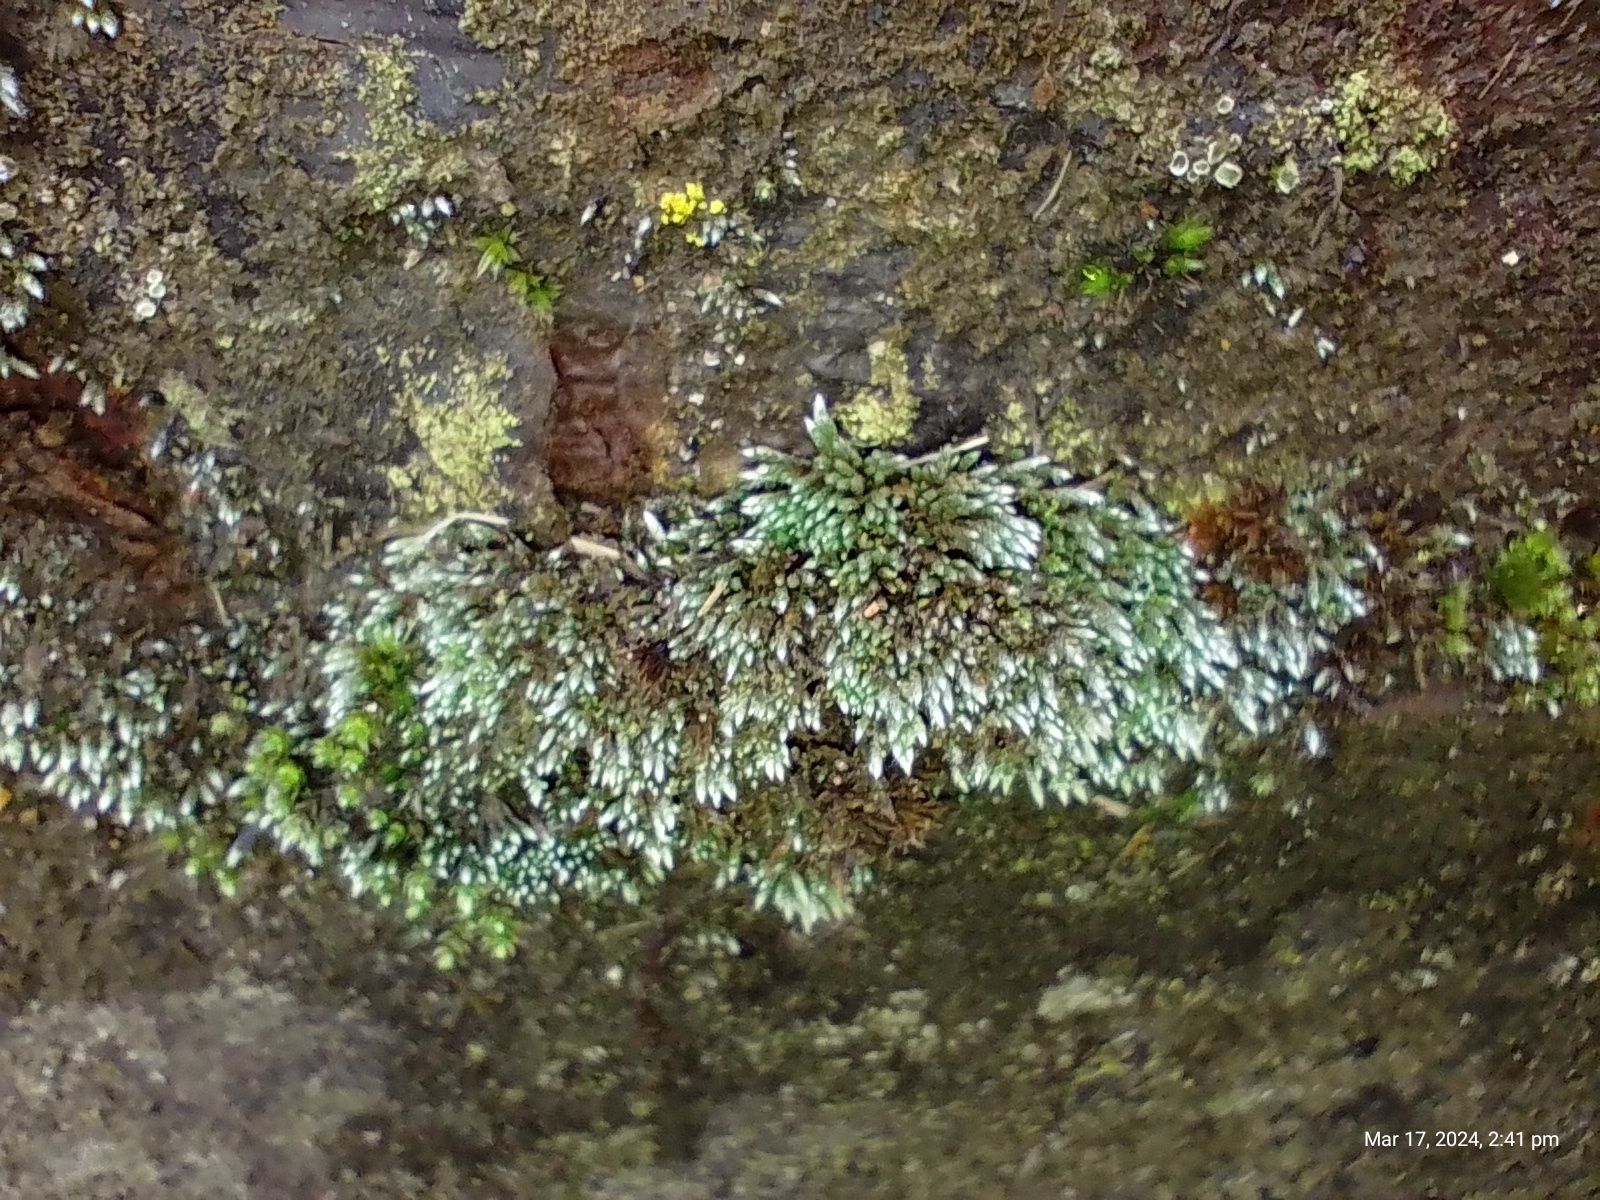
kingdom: Plantae
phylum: Bryophyta
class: Bryopsida
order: Bryales
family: Bryaceae
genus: Bryum
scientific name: Bryum argenteum
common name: Silver-moss
